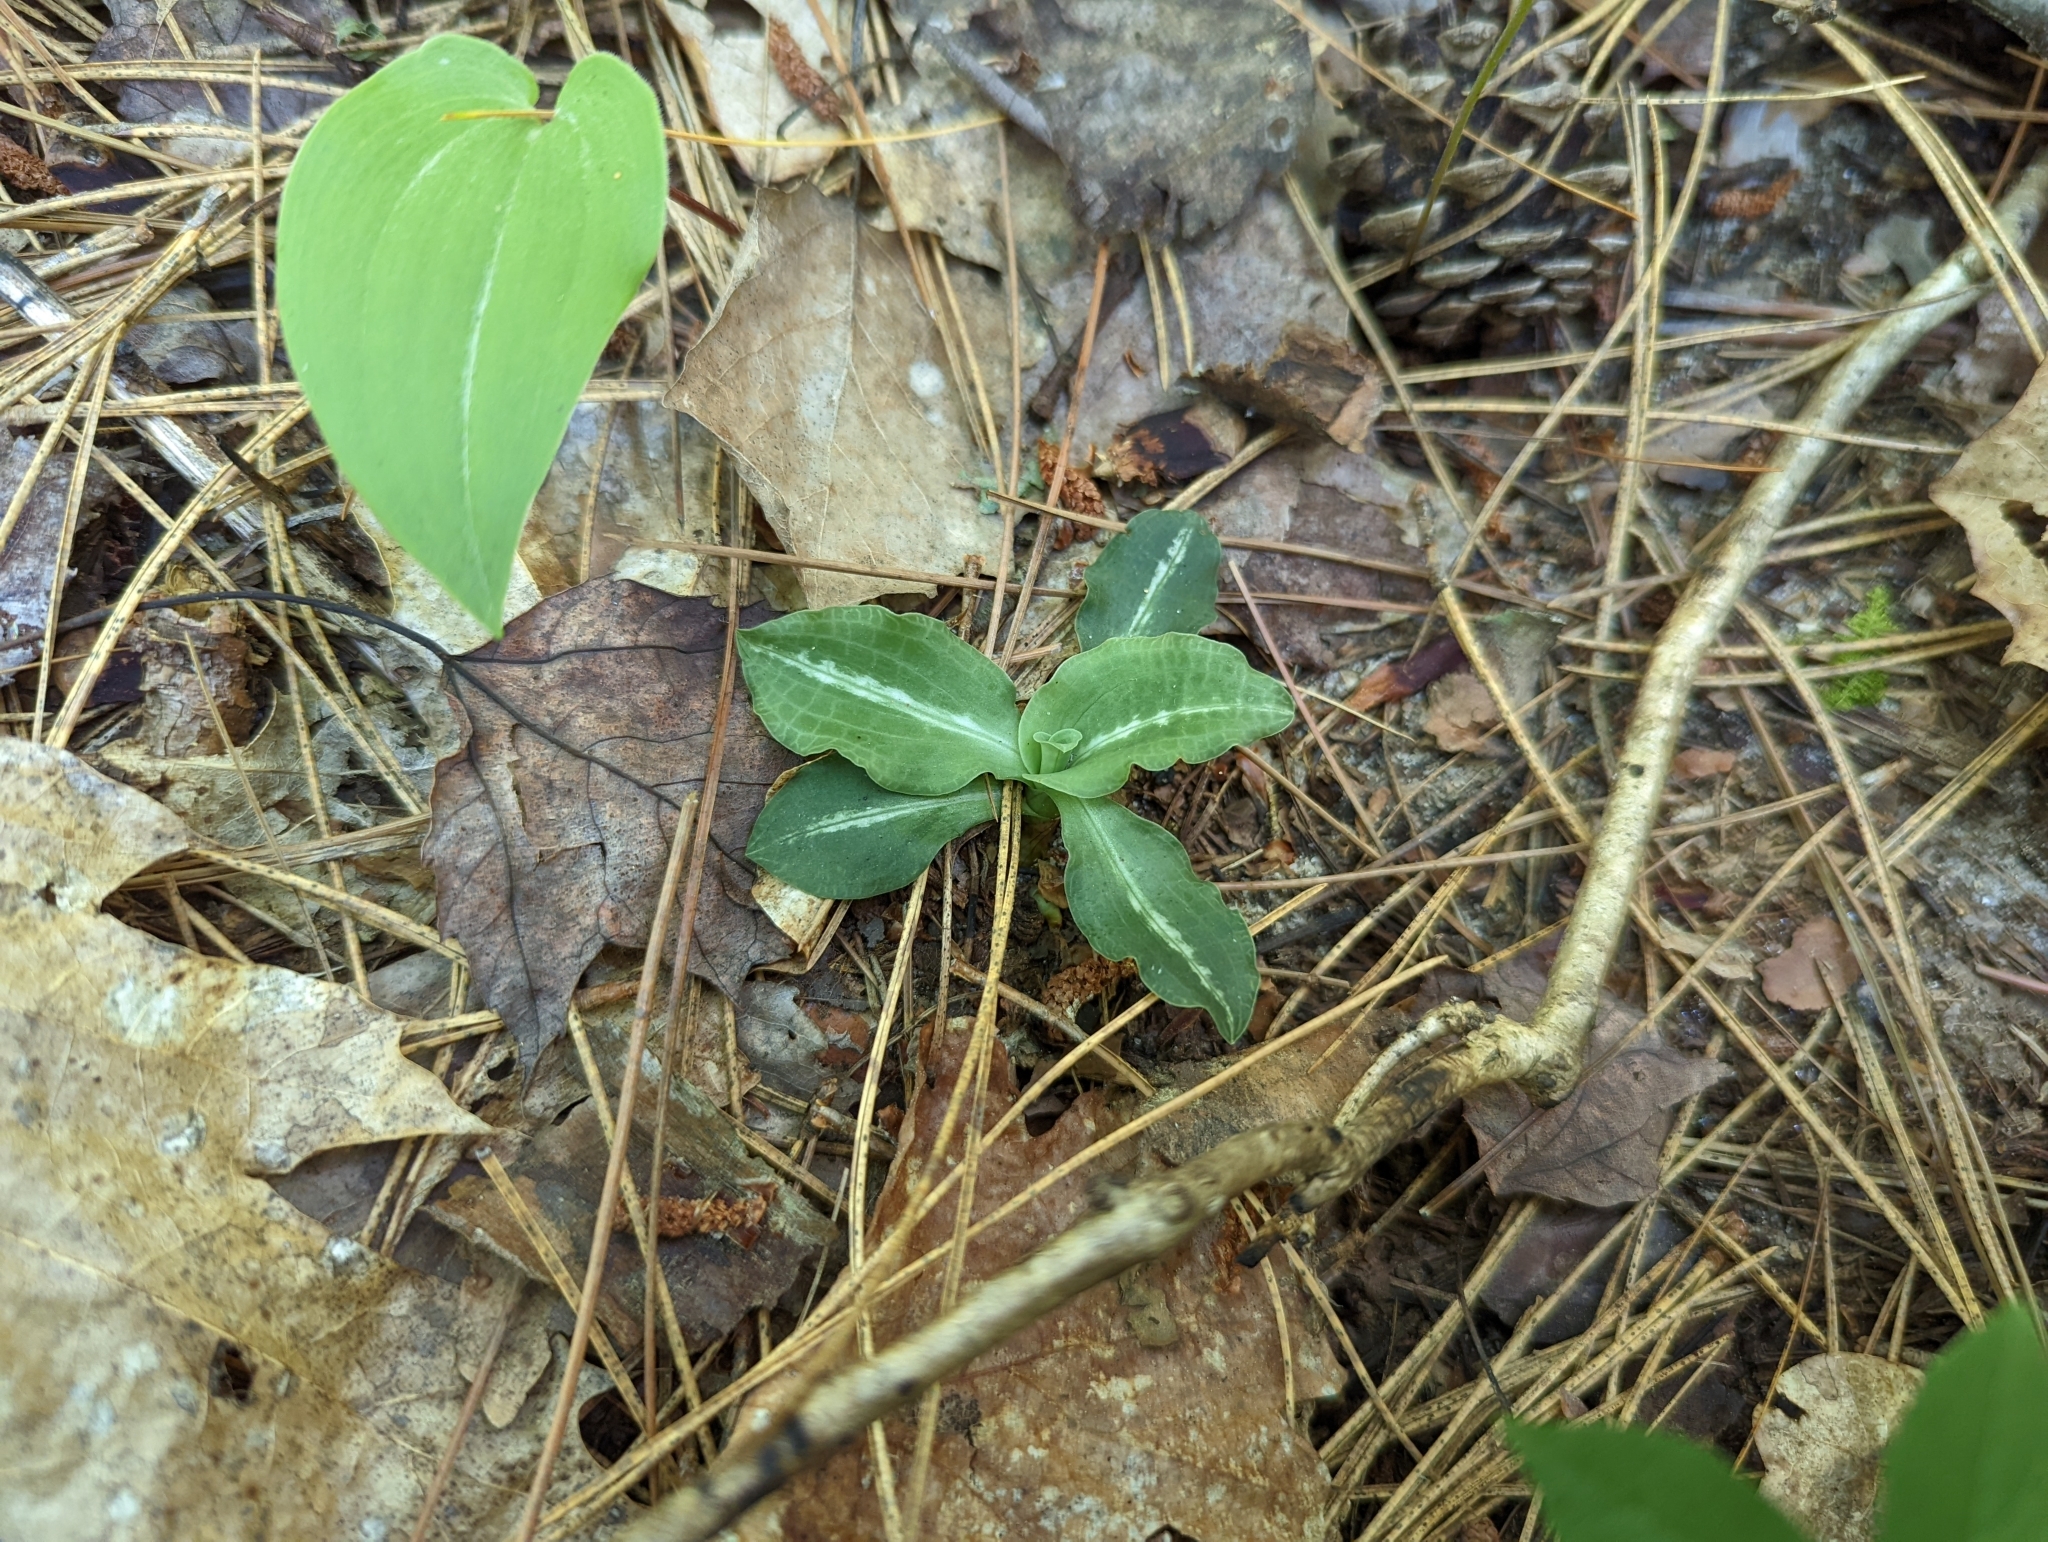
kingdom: Plantae
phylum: Tracheophyta
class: Liliopsida
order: Asparagales
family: Orchidaceae
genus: Goodyera
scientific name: Goodyera oblongifolia
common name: Giant rattlesnake-plantain
